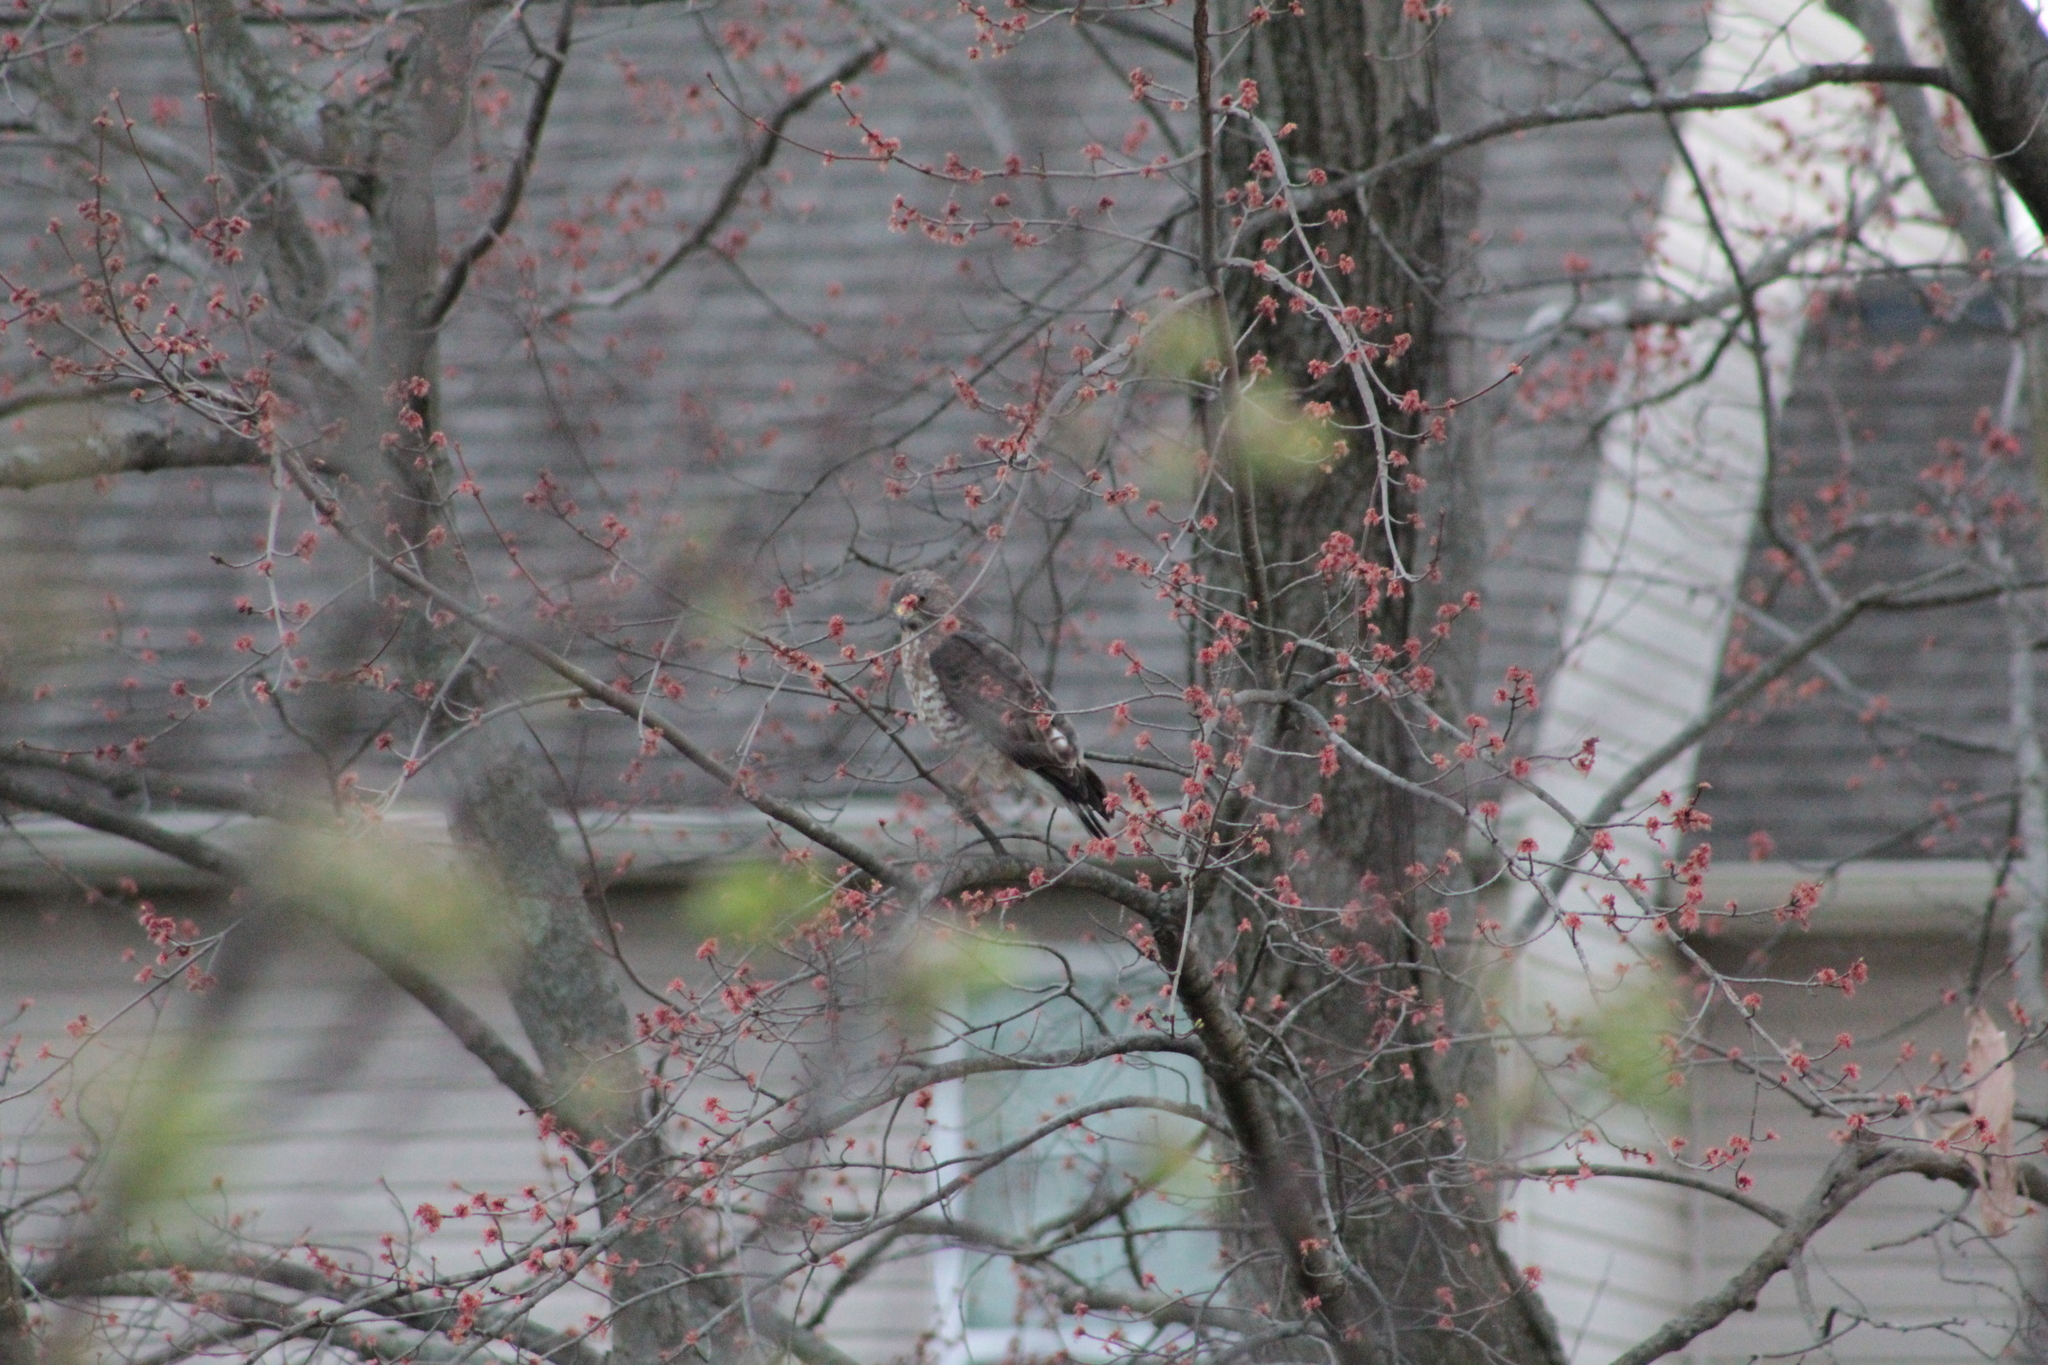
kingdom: Animalia
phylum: Chordata
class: Aves
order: Accipitriformes
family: Accipitridae
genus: Buteo
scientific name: Buteo platypterus
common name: Broad-winged hawk
